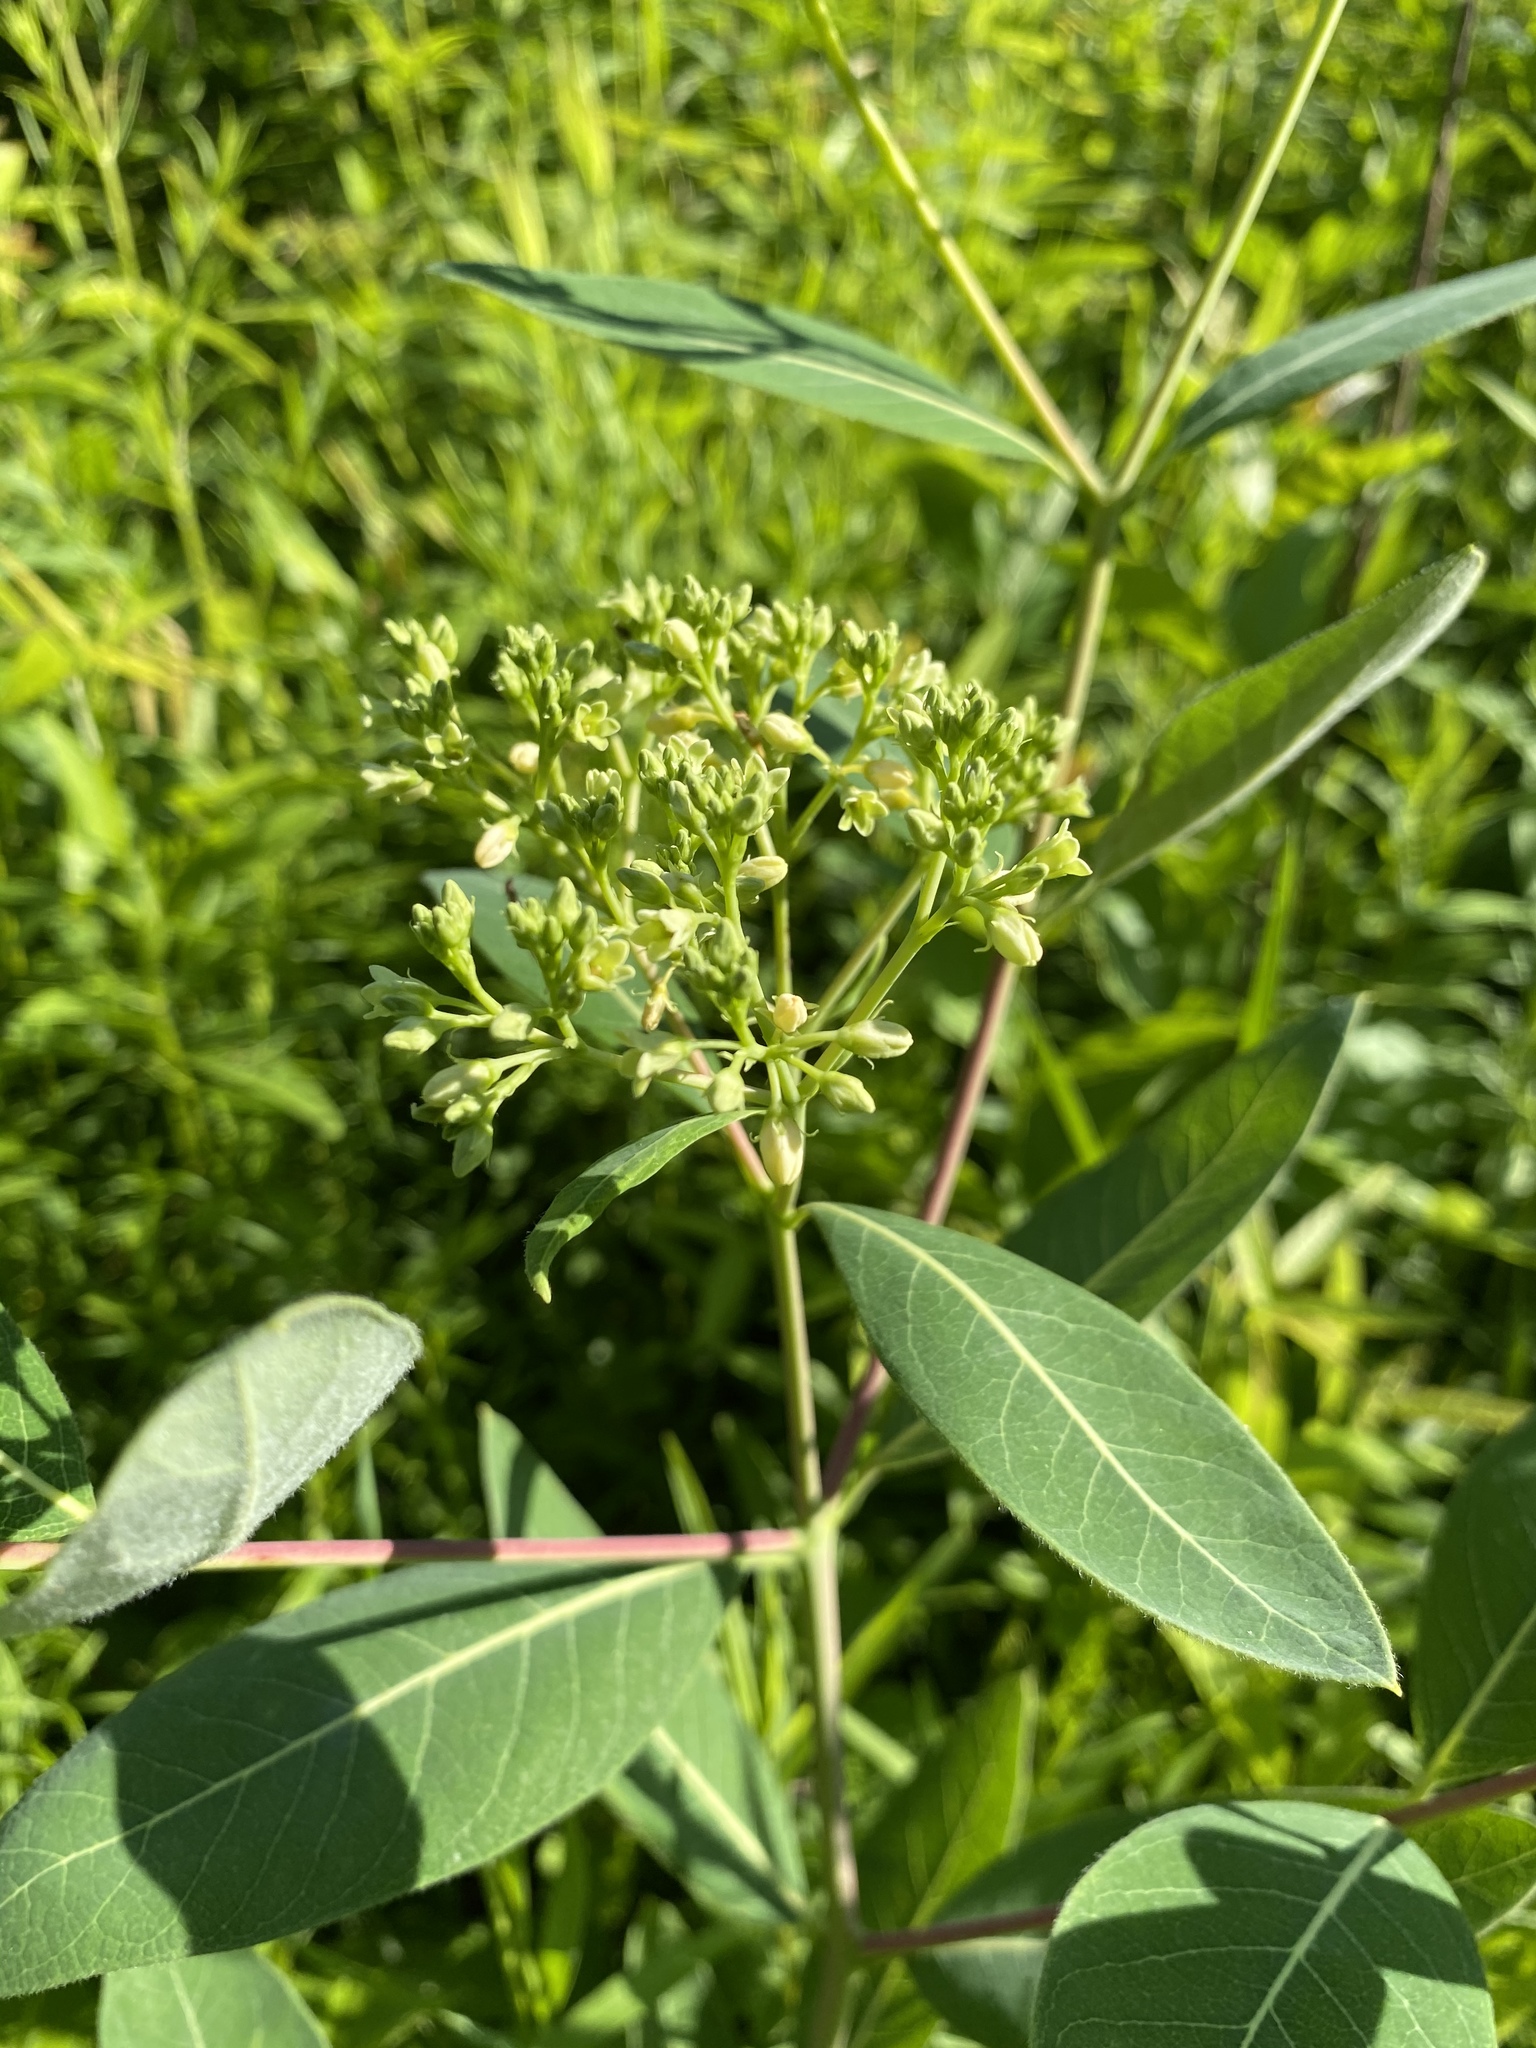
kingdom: Plantae
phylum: Tracheophyta
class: Magnoliopsida
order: Gentianales
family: Apocynaceae
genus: Apocynum
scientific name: Apocynum cannabinum
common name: Hemp dogbane
